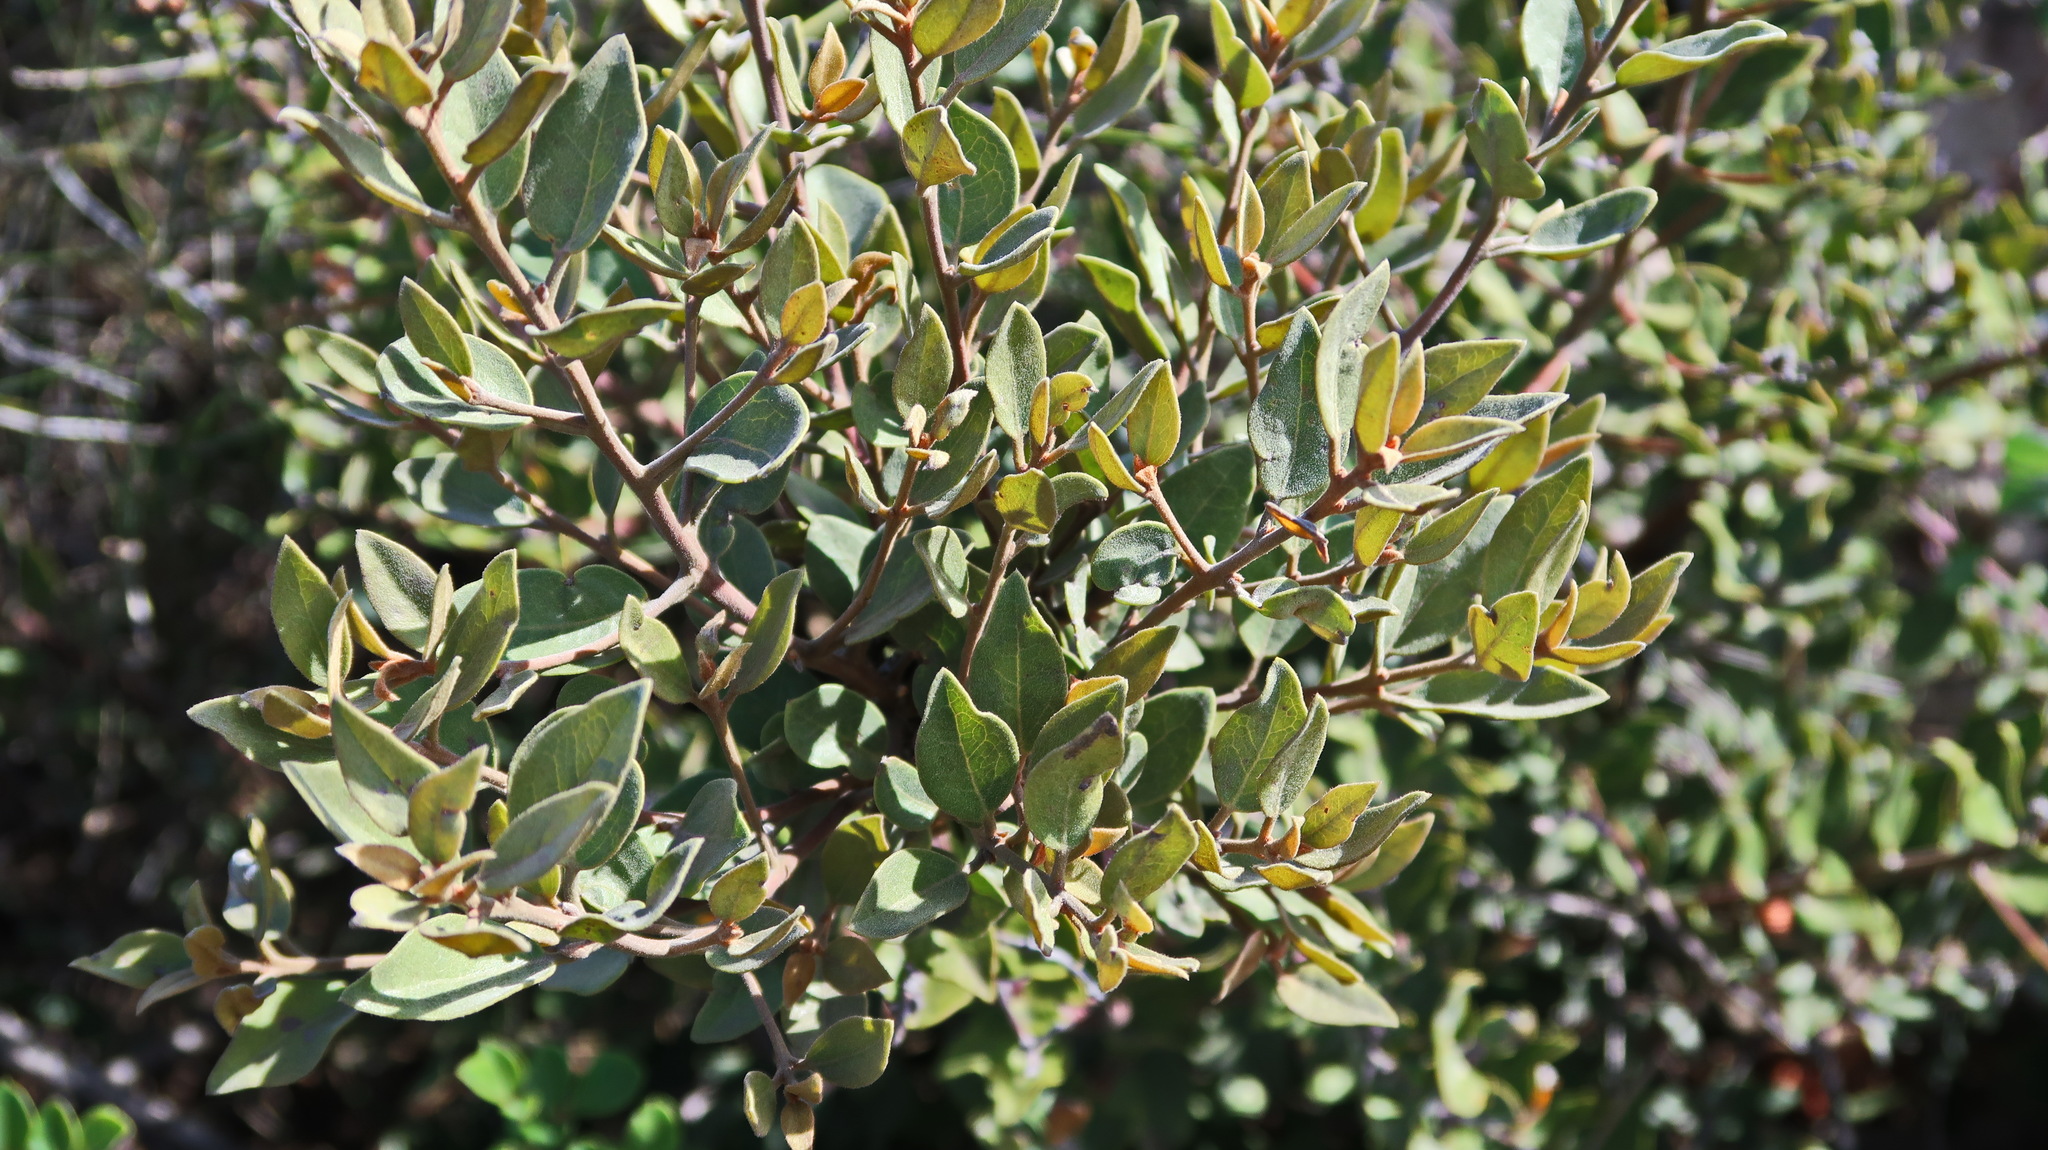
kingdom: Plantae
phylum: Tracheophyta
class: Magnoliopsida
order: Ericales
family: Ebenaceae
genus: Euclea
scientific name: Euclea polyandra
